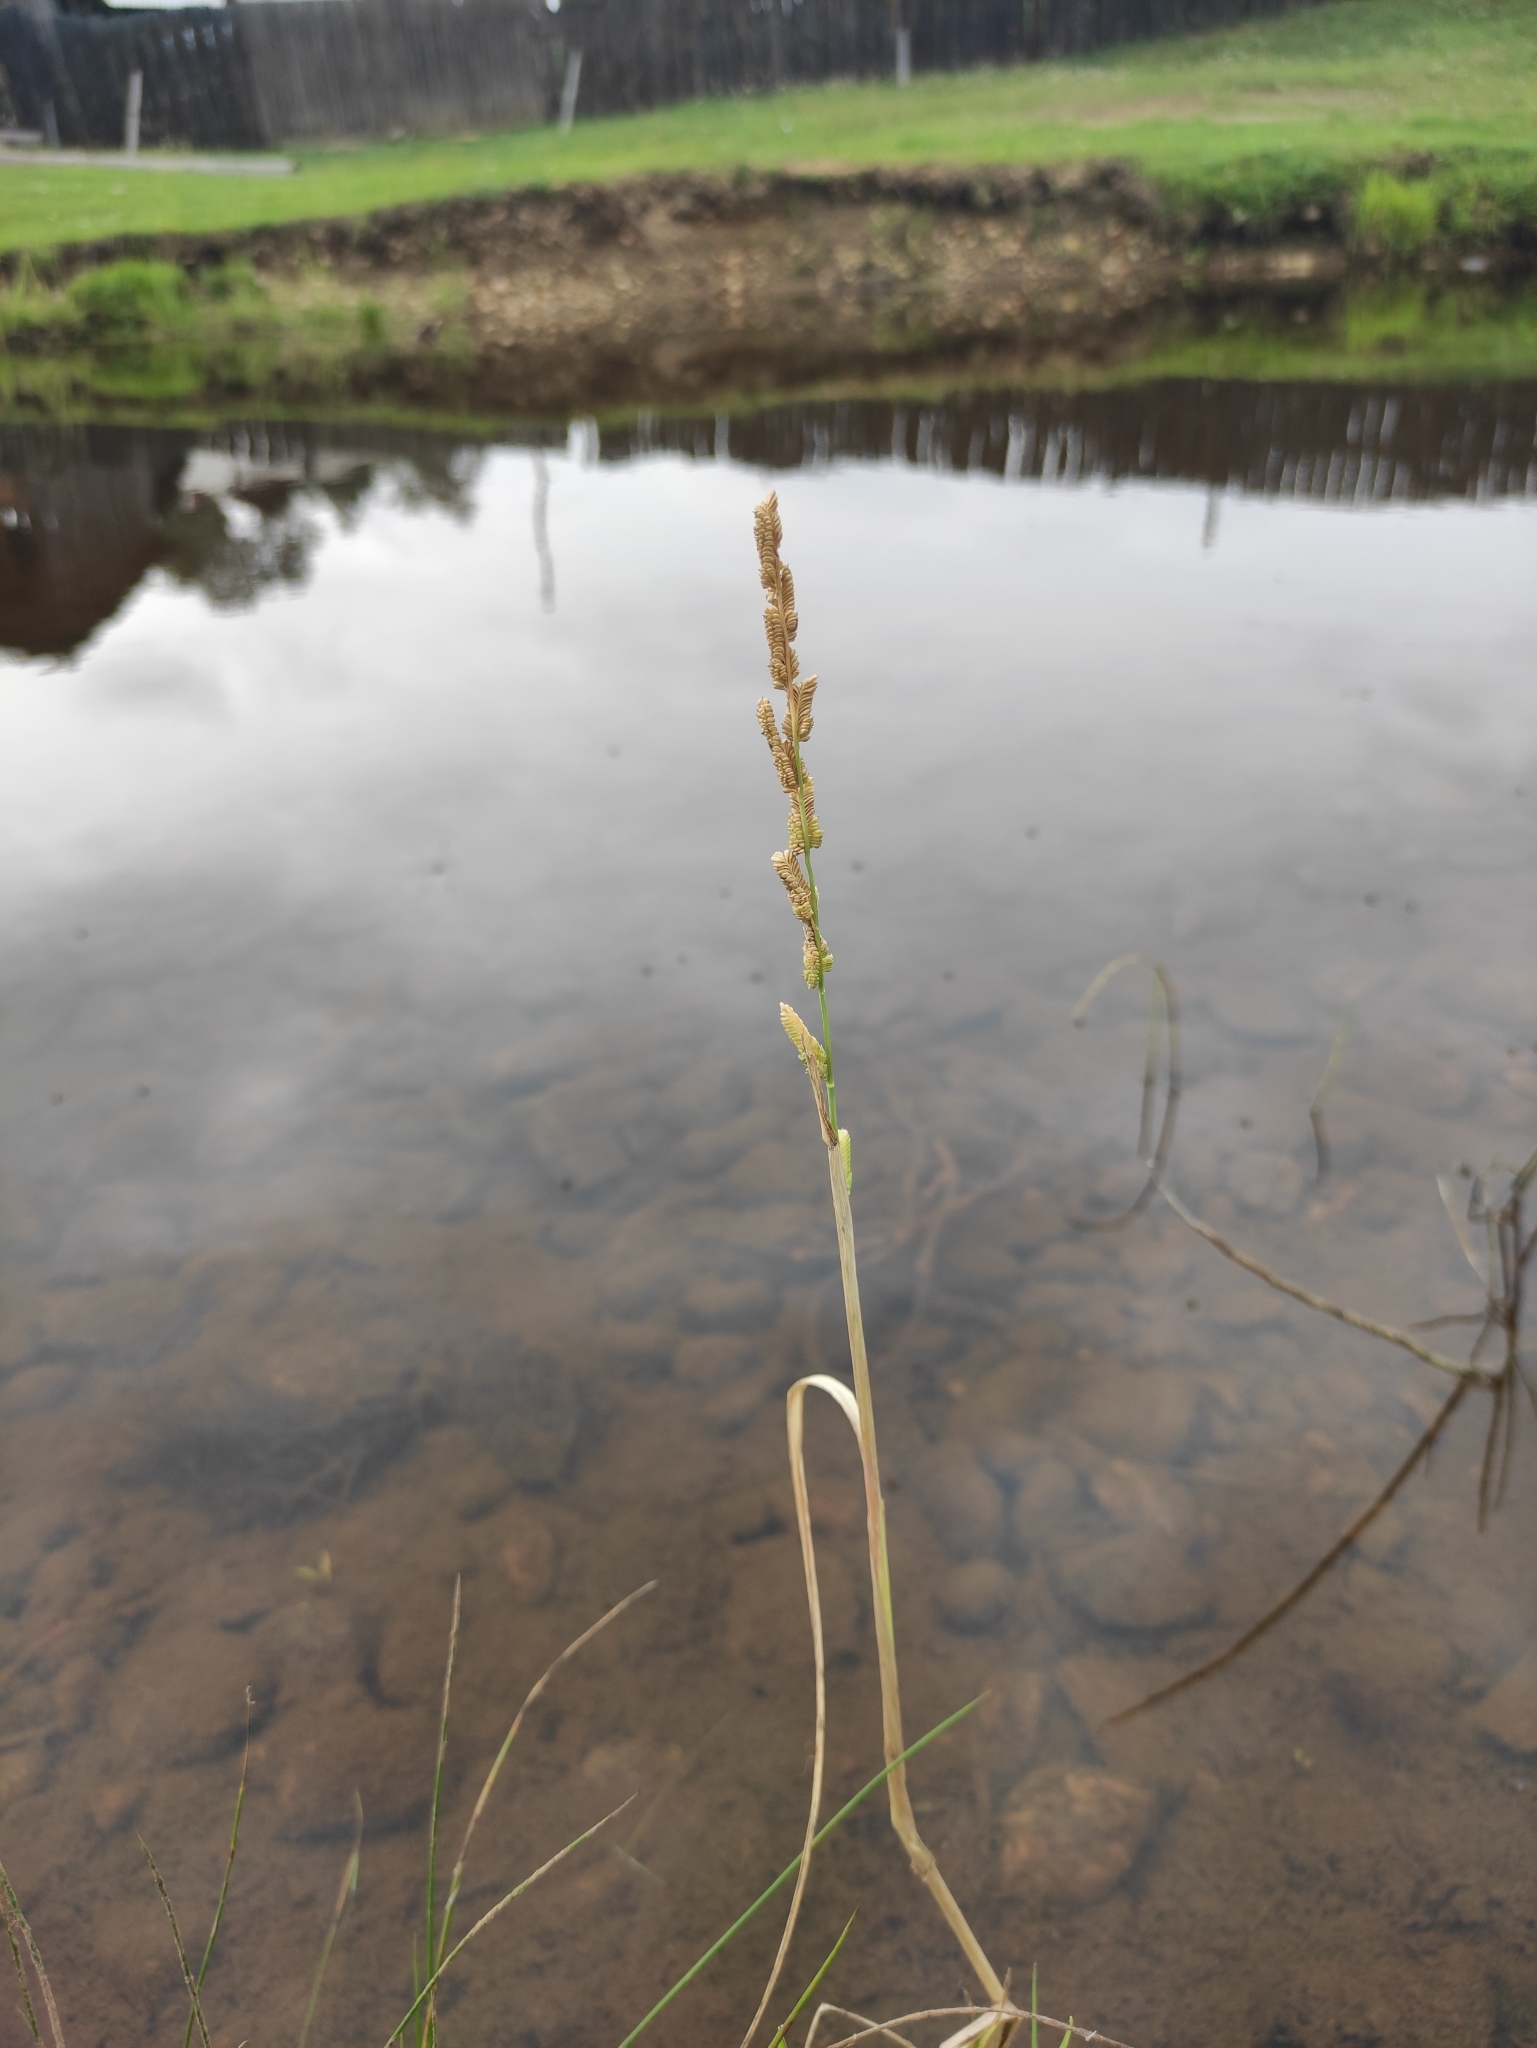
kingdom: Plantae
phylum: Tracheophyta
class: Liliopsida
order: Poales
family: Poaceae
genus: Beckmannia
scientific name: Beckmannia syzigachne
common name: American slough-grass
